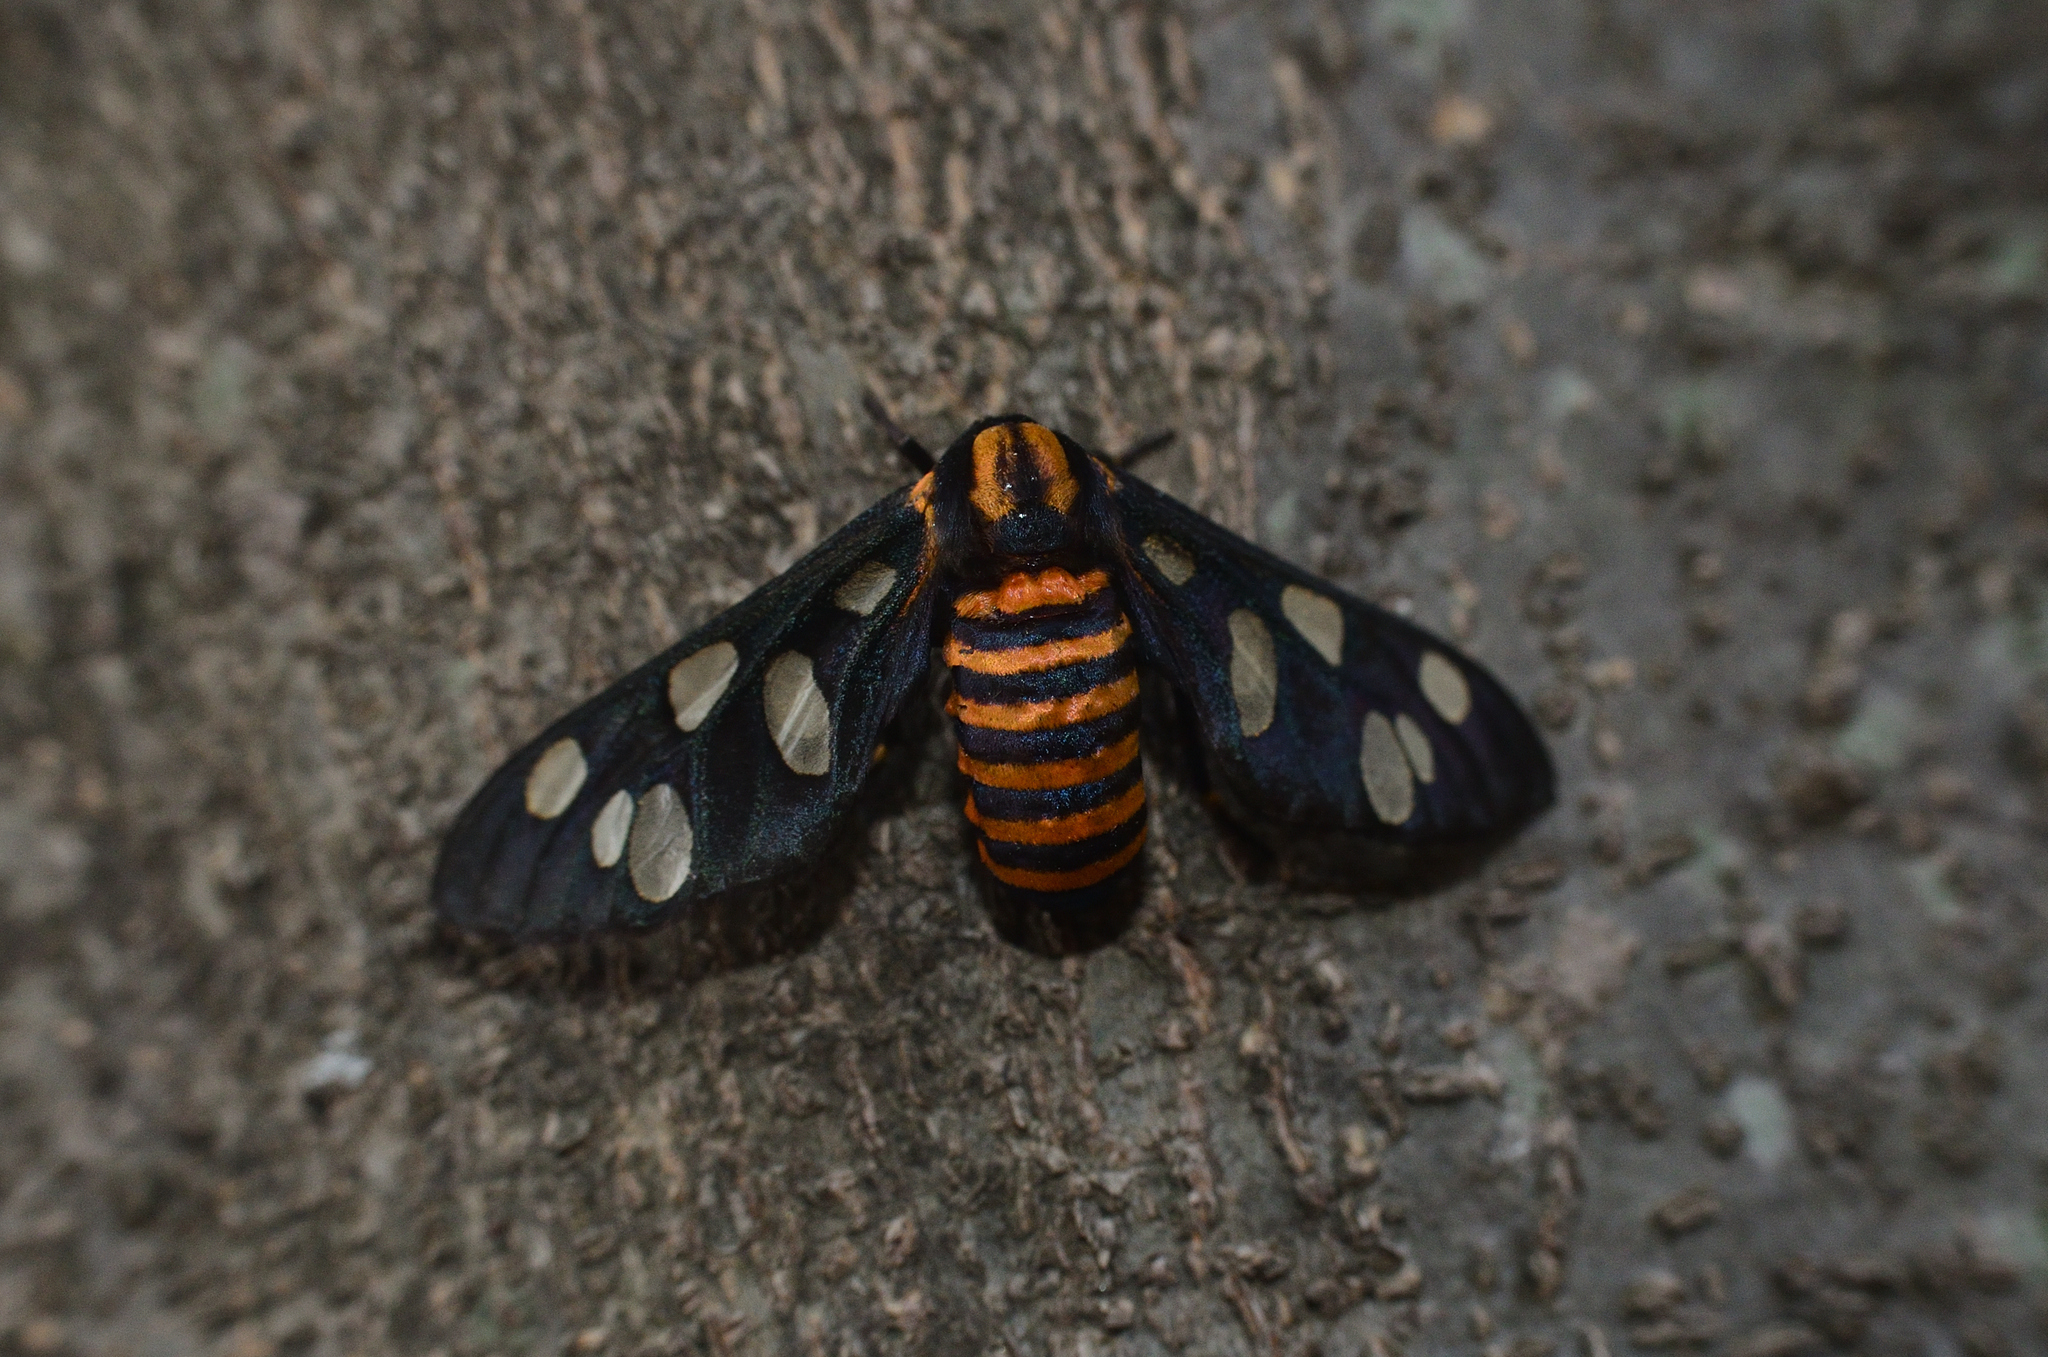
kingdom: Animalia
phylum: Arthropoda
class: Insecta
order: Lepidoptera
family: Erebidae
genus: Amata
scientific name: Amata passalis
